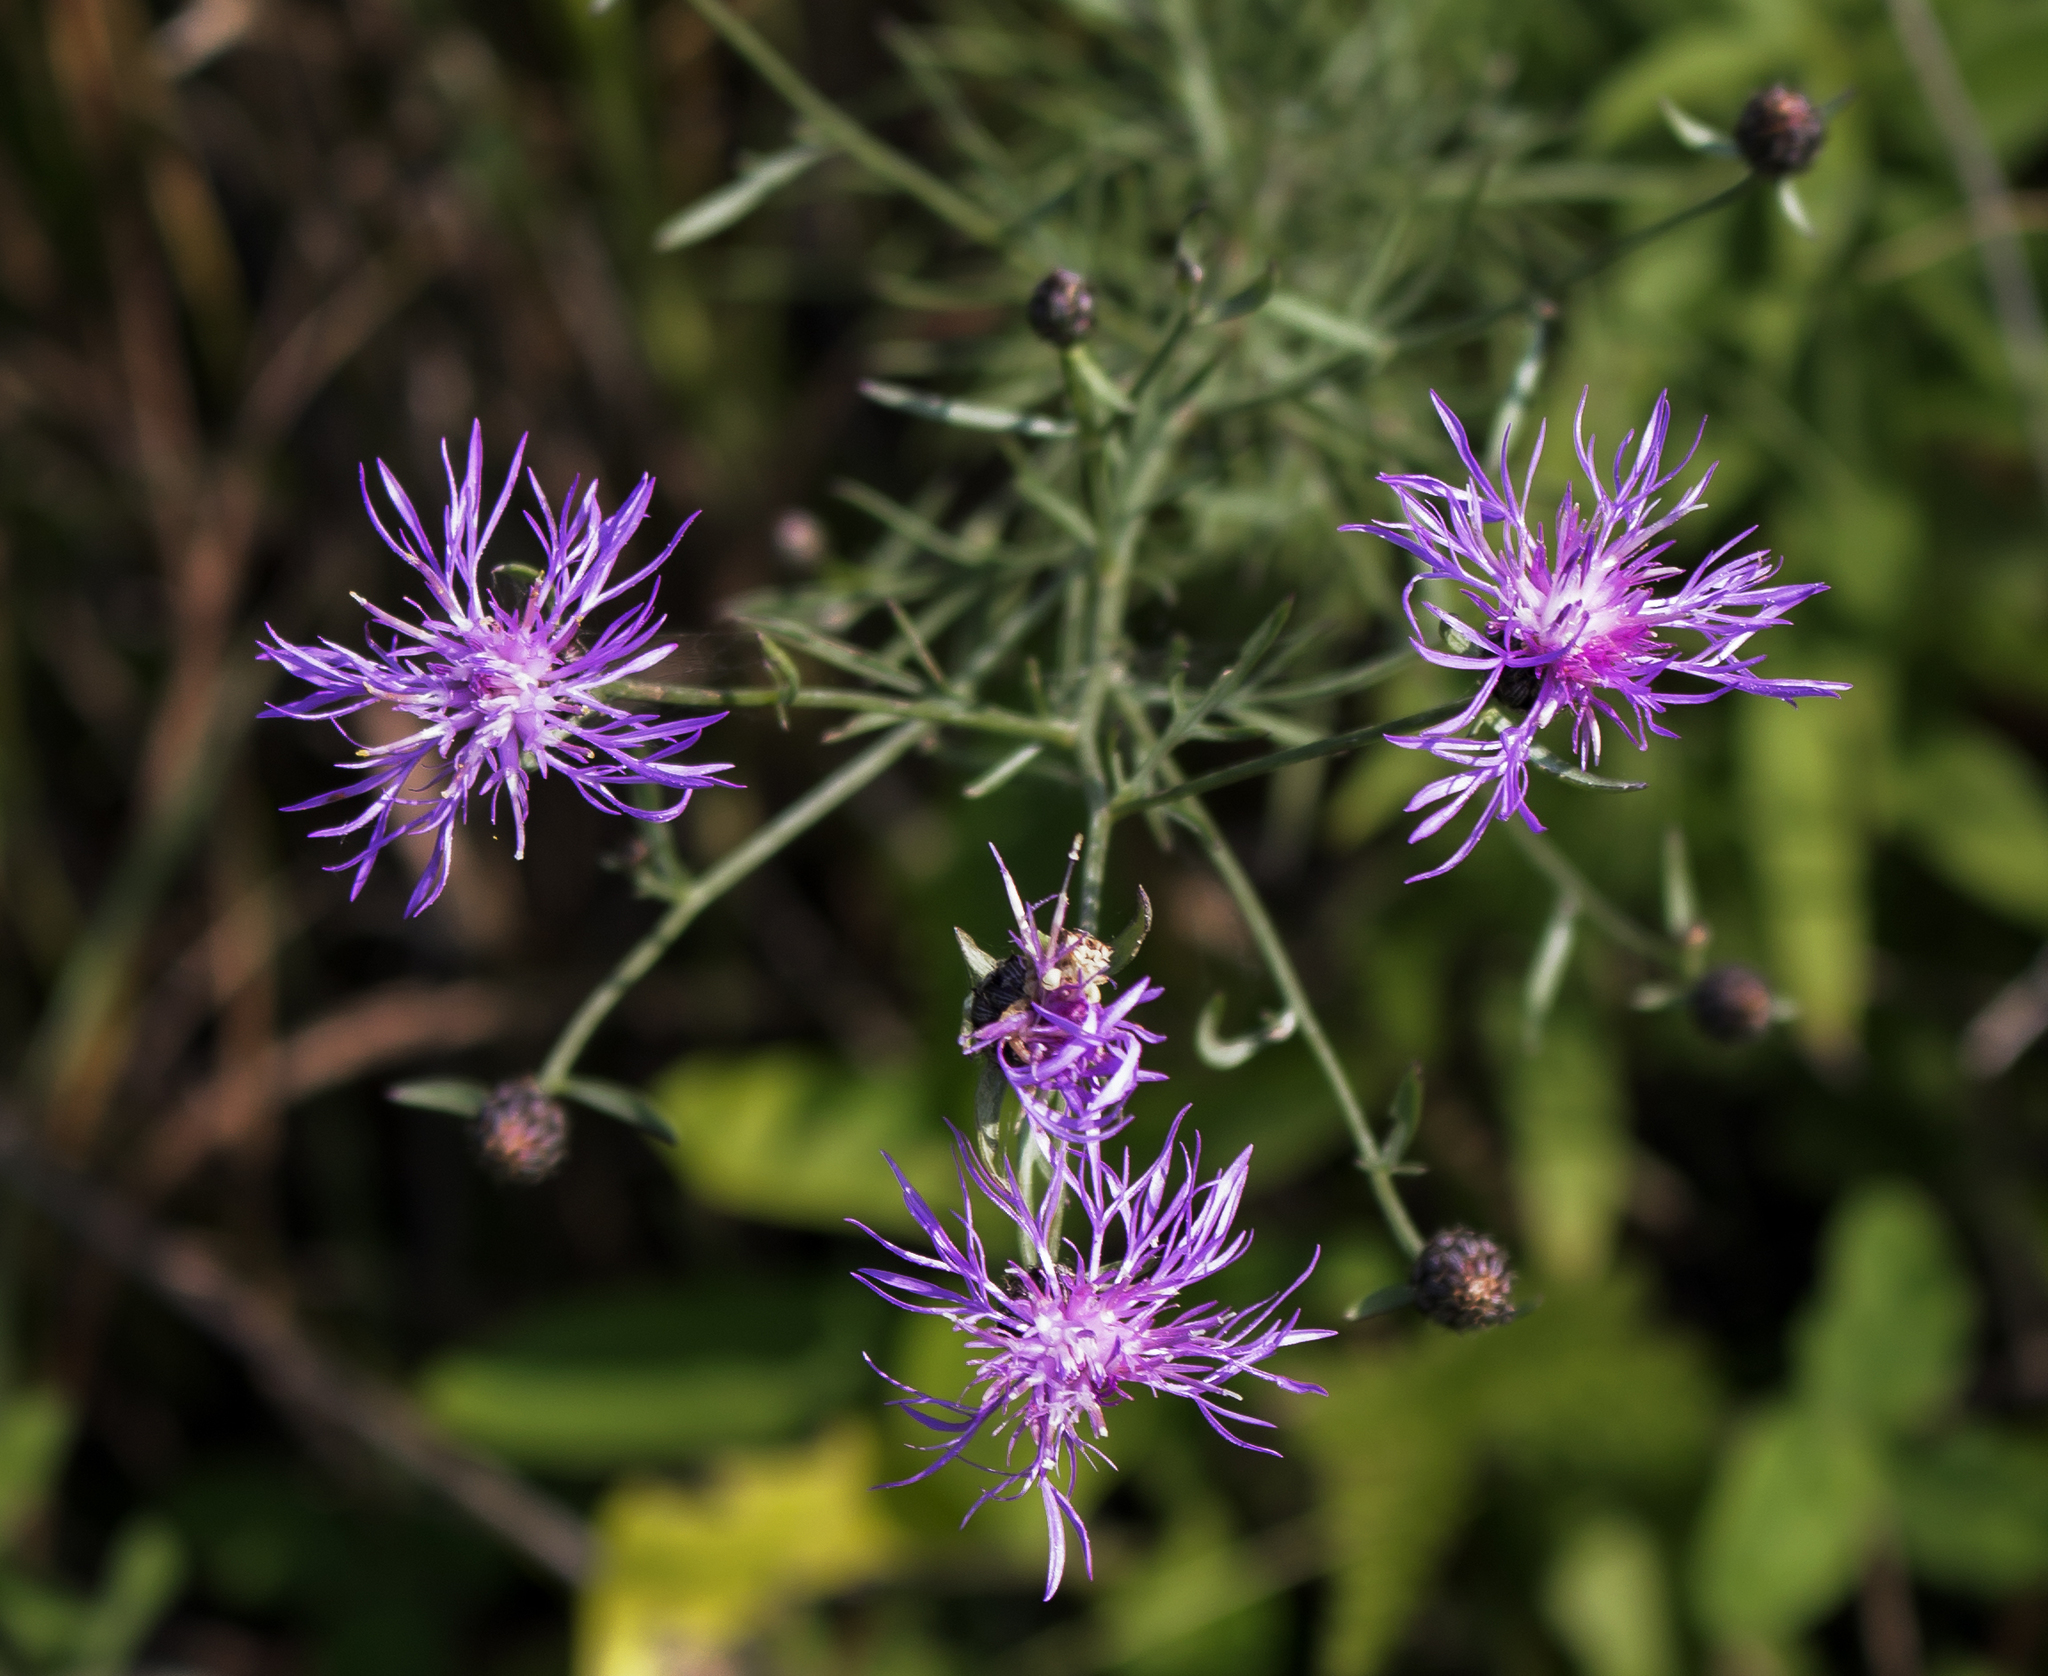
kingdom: Plantae
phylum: Tracheophyta
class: Magnoliopsida
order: Asterales
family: Asteraceae
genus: Centaurea
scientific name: Centaurea stoebe
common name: Spotted knapweed
